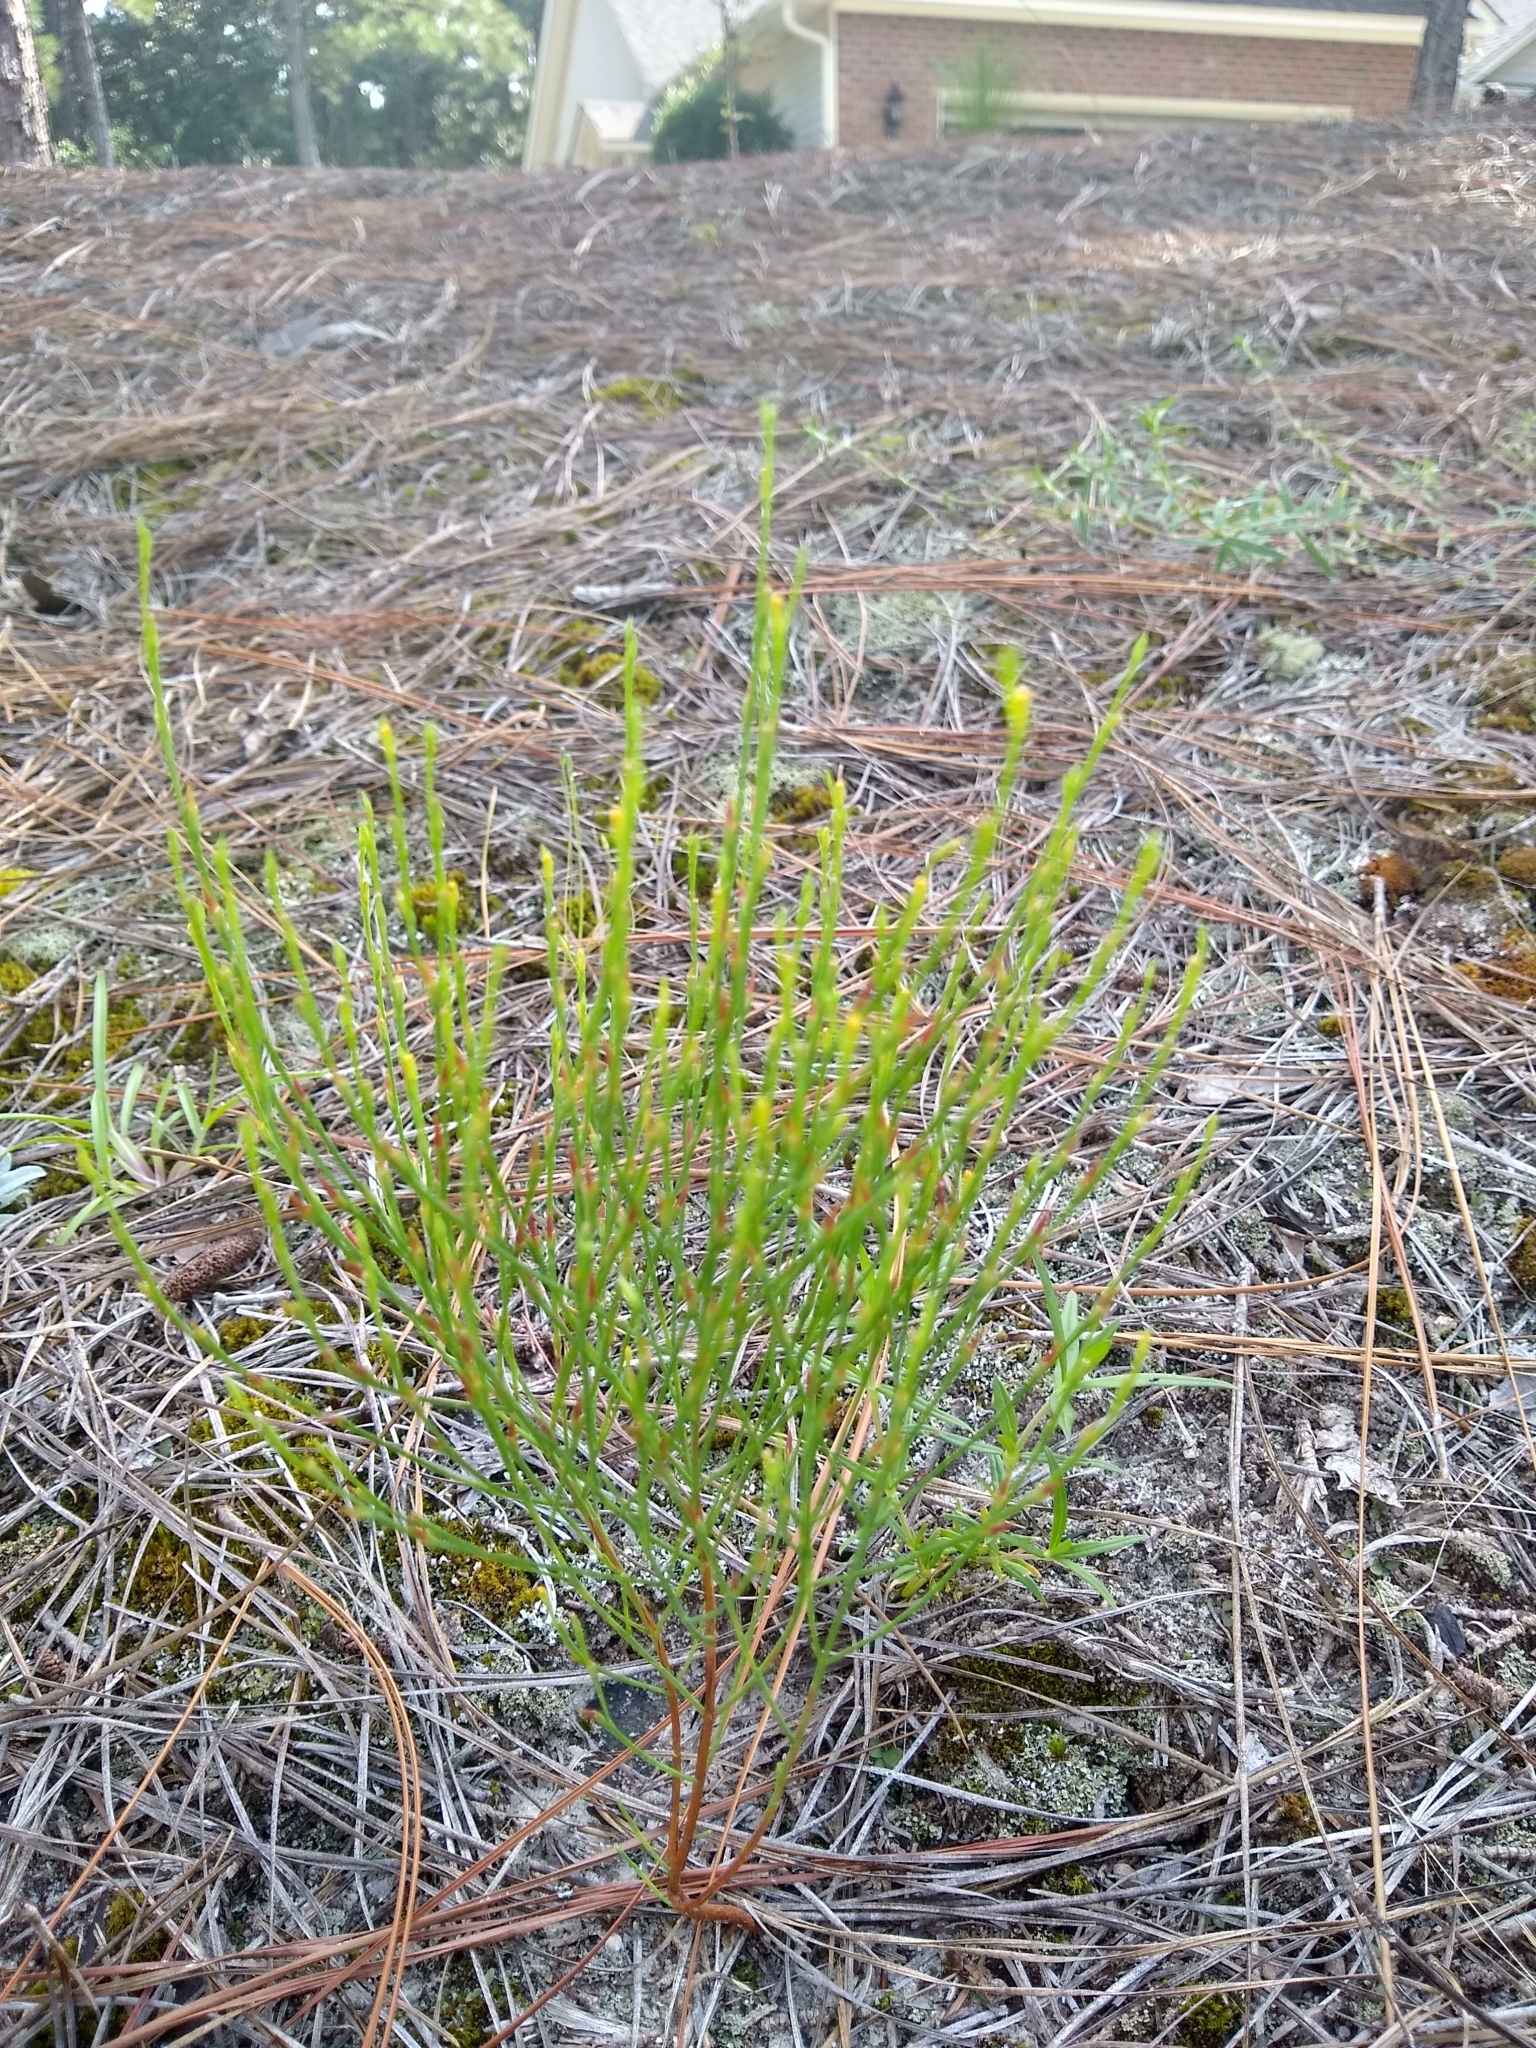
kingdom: Plantae
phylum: Tracheophyta
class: Magnoliopsida
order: Malpighiales
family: Hypericaceae
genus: Hypericum
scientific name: Hypericum gentianoides
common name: Gentian-leaved st. john's-wort
